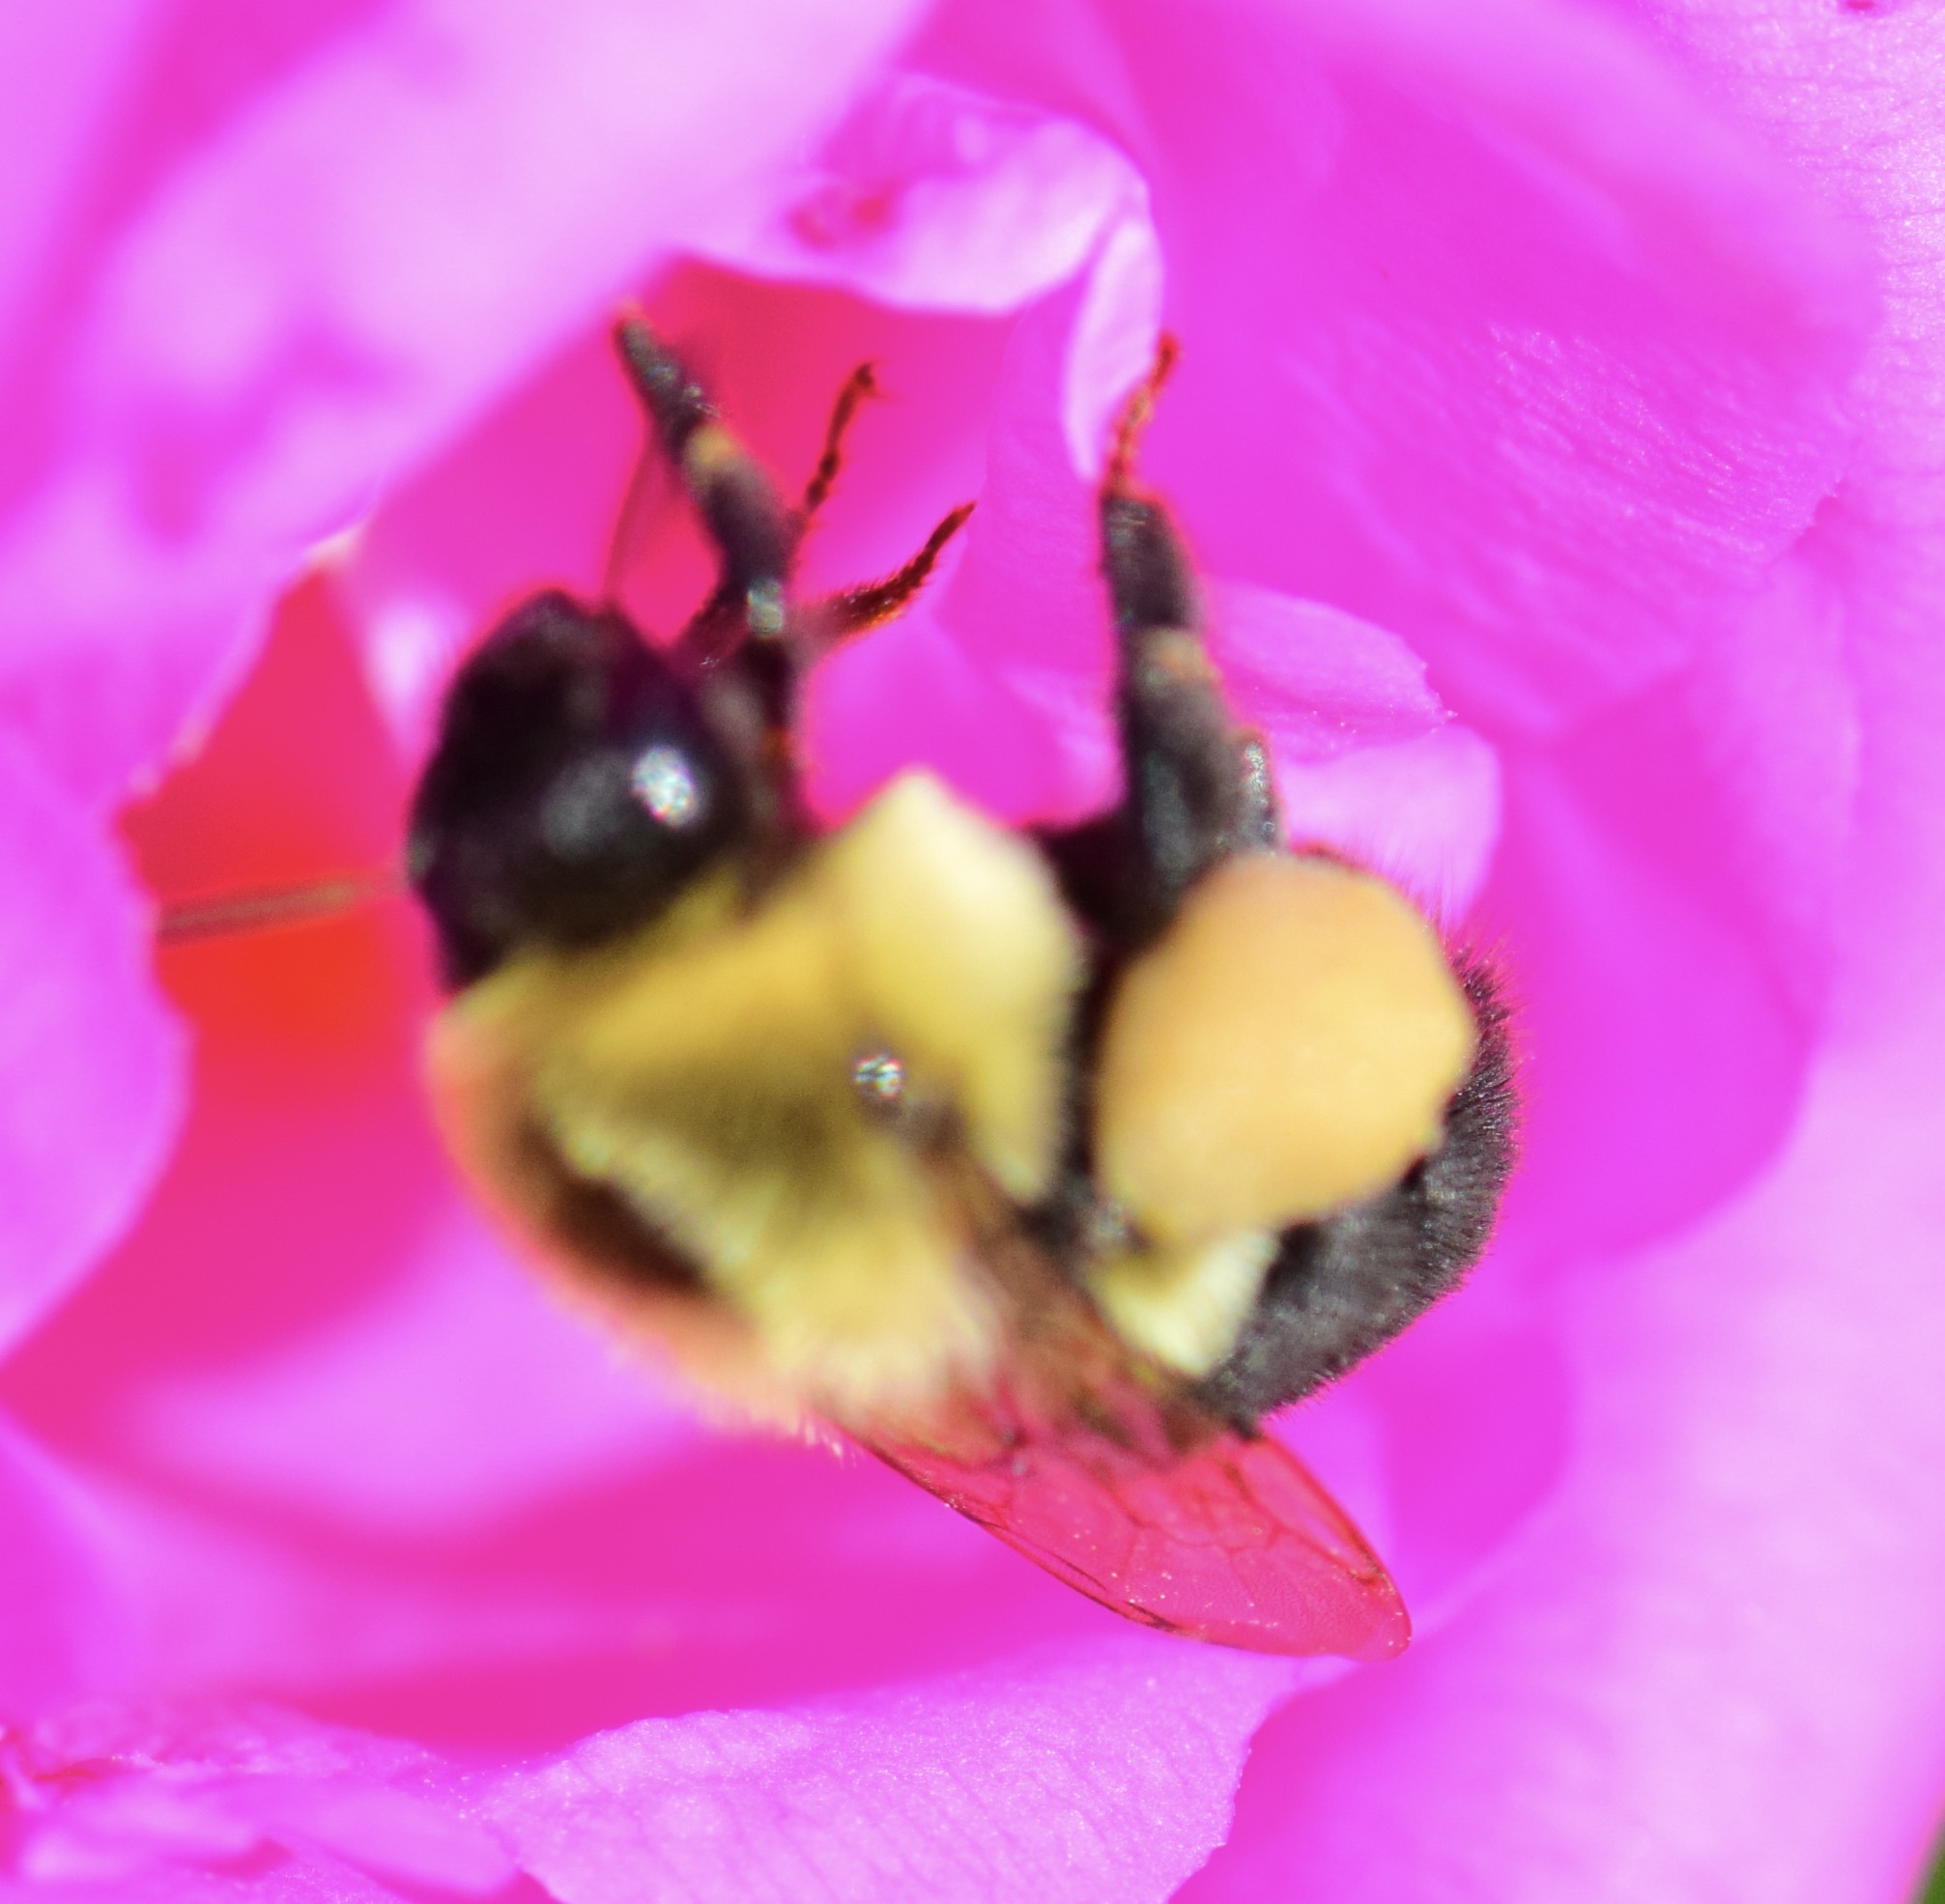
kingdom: Animalia
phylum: Arthropoda
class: Insecta
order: Hymenoptera
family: Apidae
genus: Bombus
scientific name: Bombus impatiens
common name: Common eastern bumble bee
